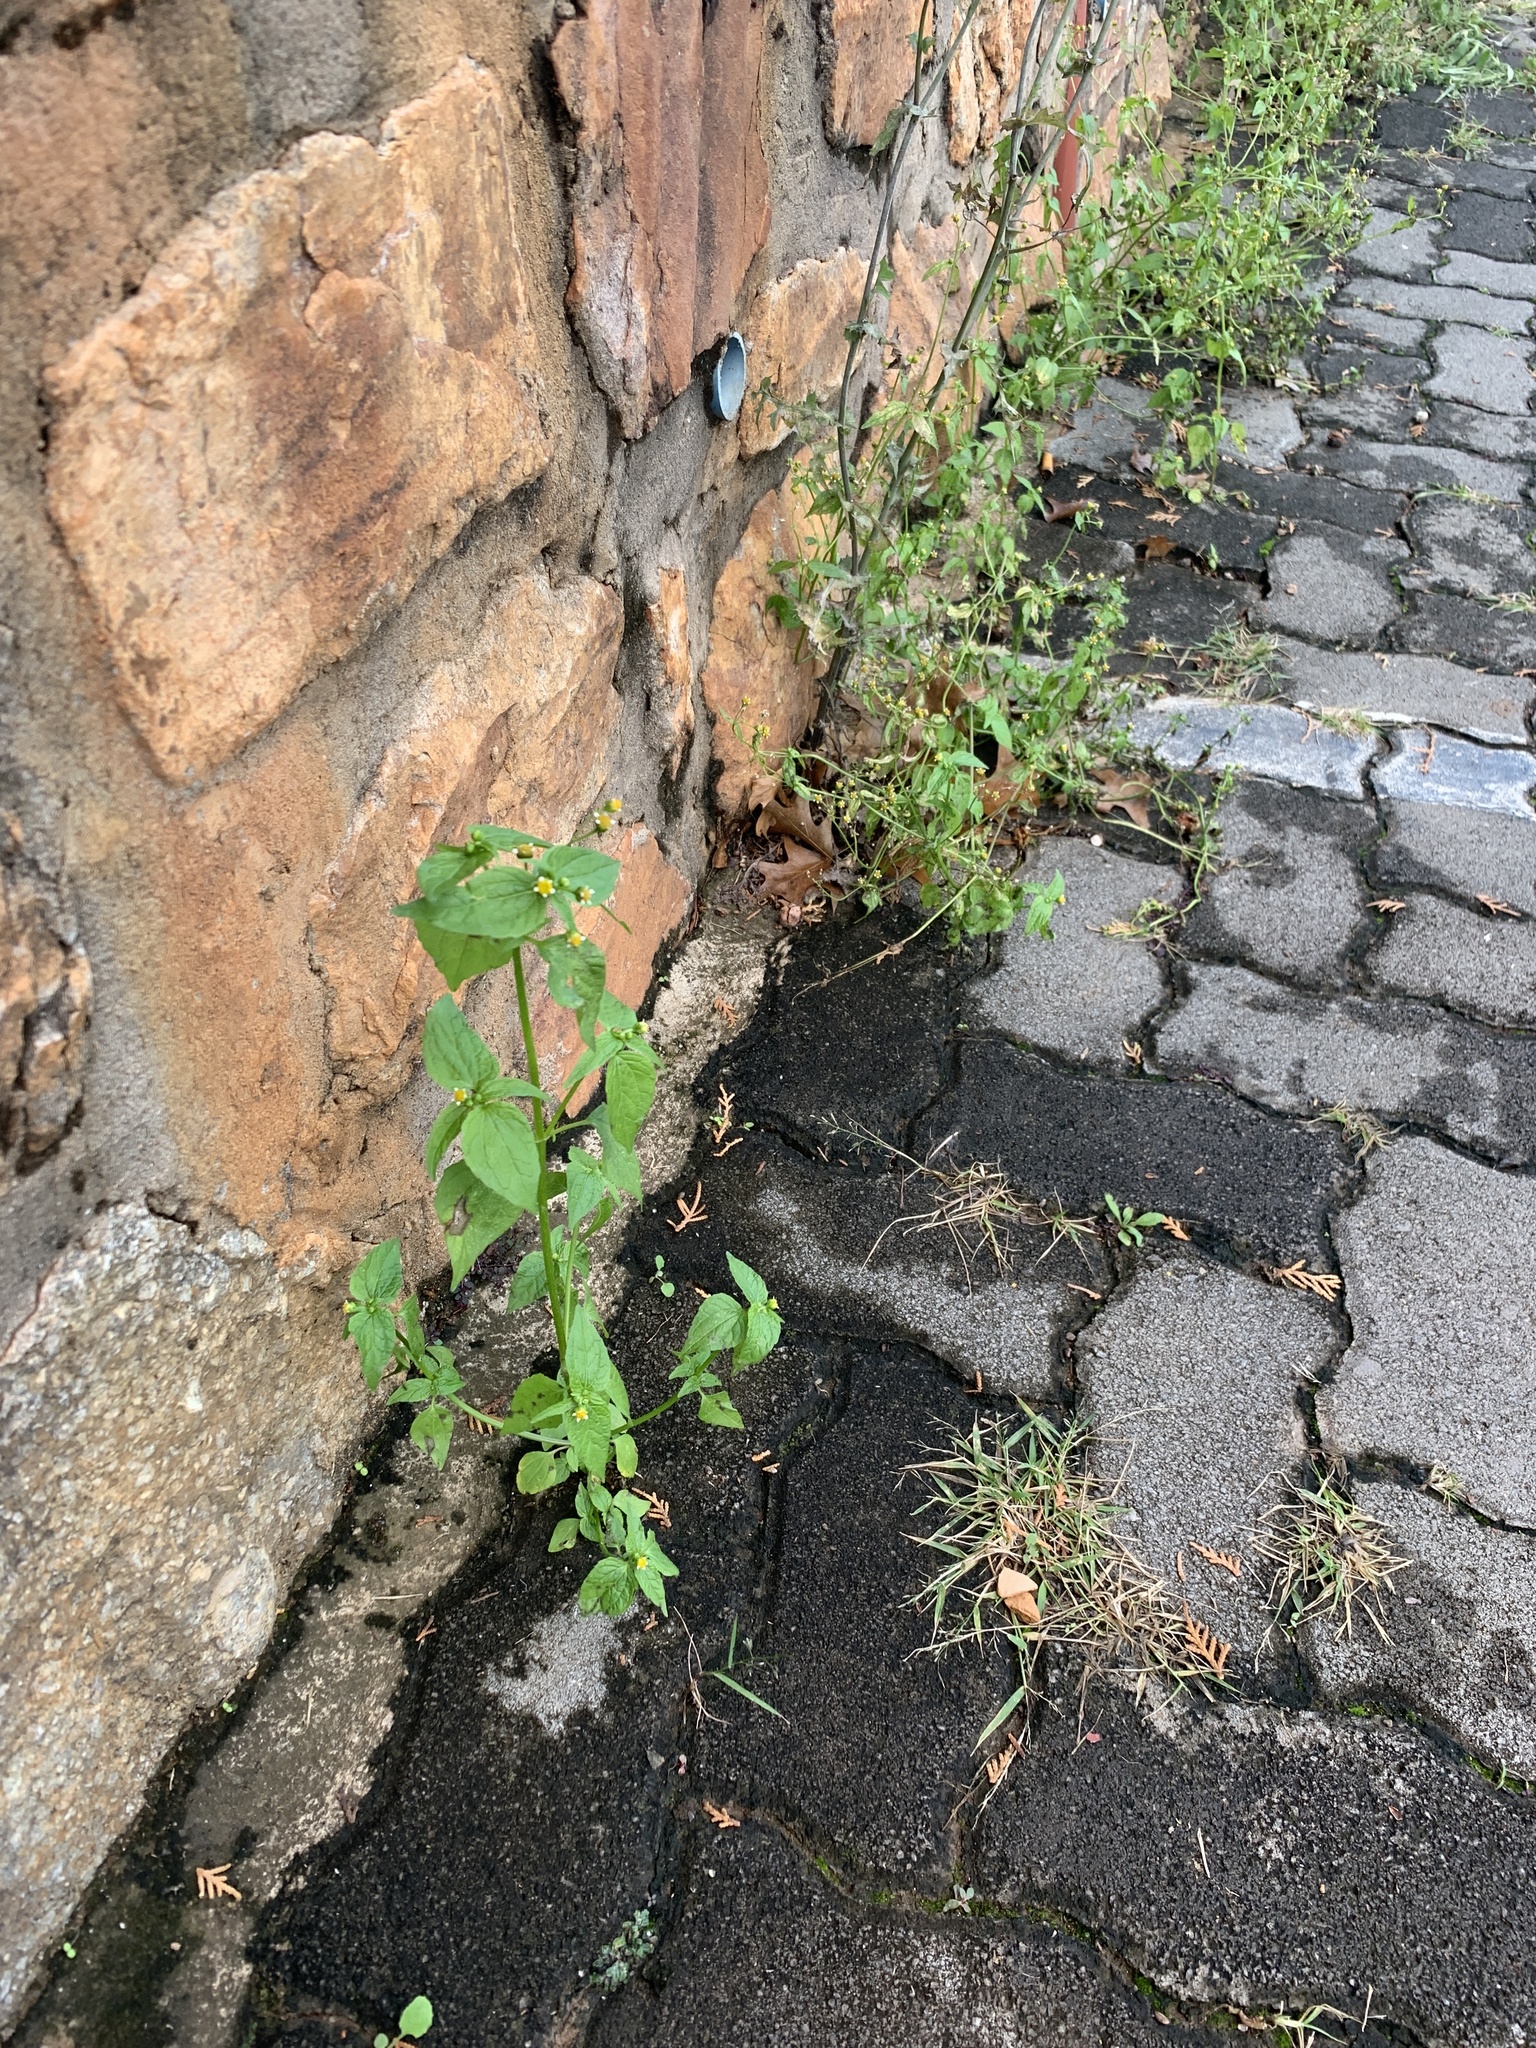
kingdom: Plantae
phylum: Tracheophyta
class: Magnoliopsida
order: Asterales
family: Asteraceae
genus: Galinsoga
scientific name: Galinsoga parviflora
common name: Gallant soldier
